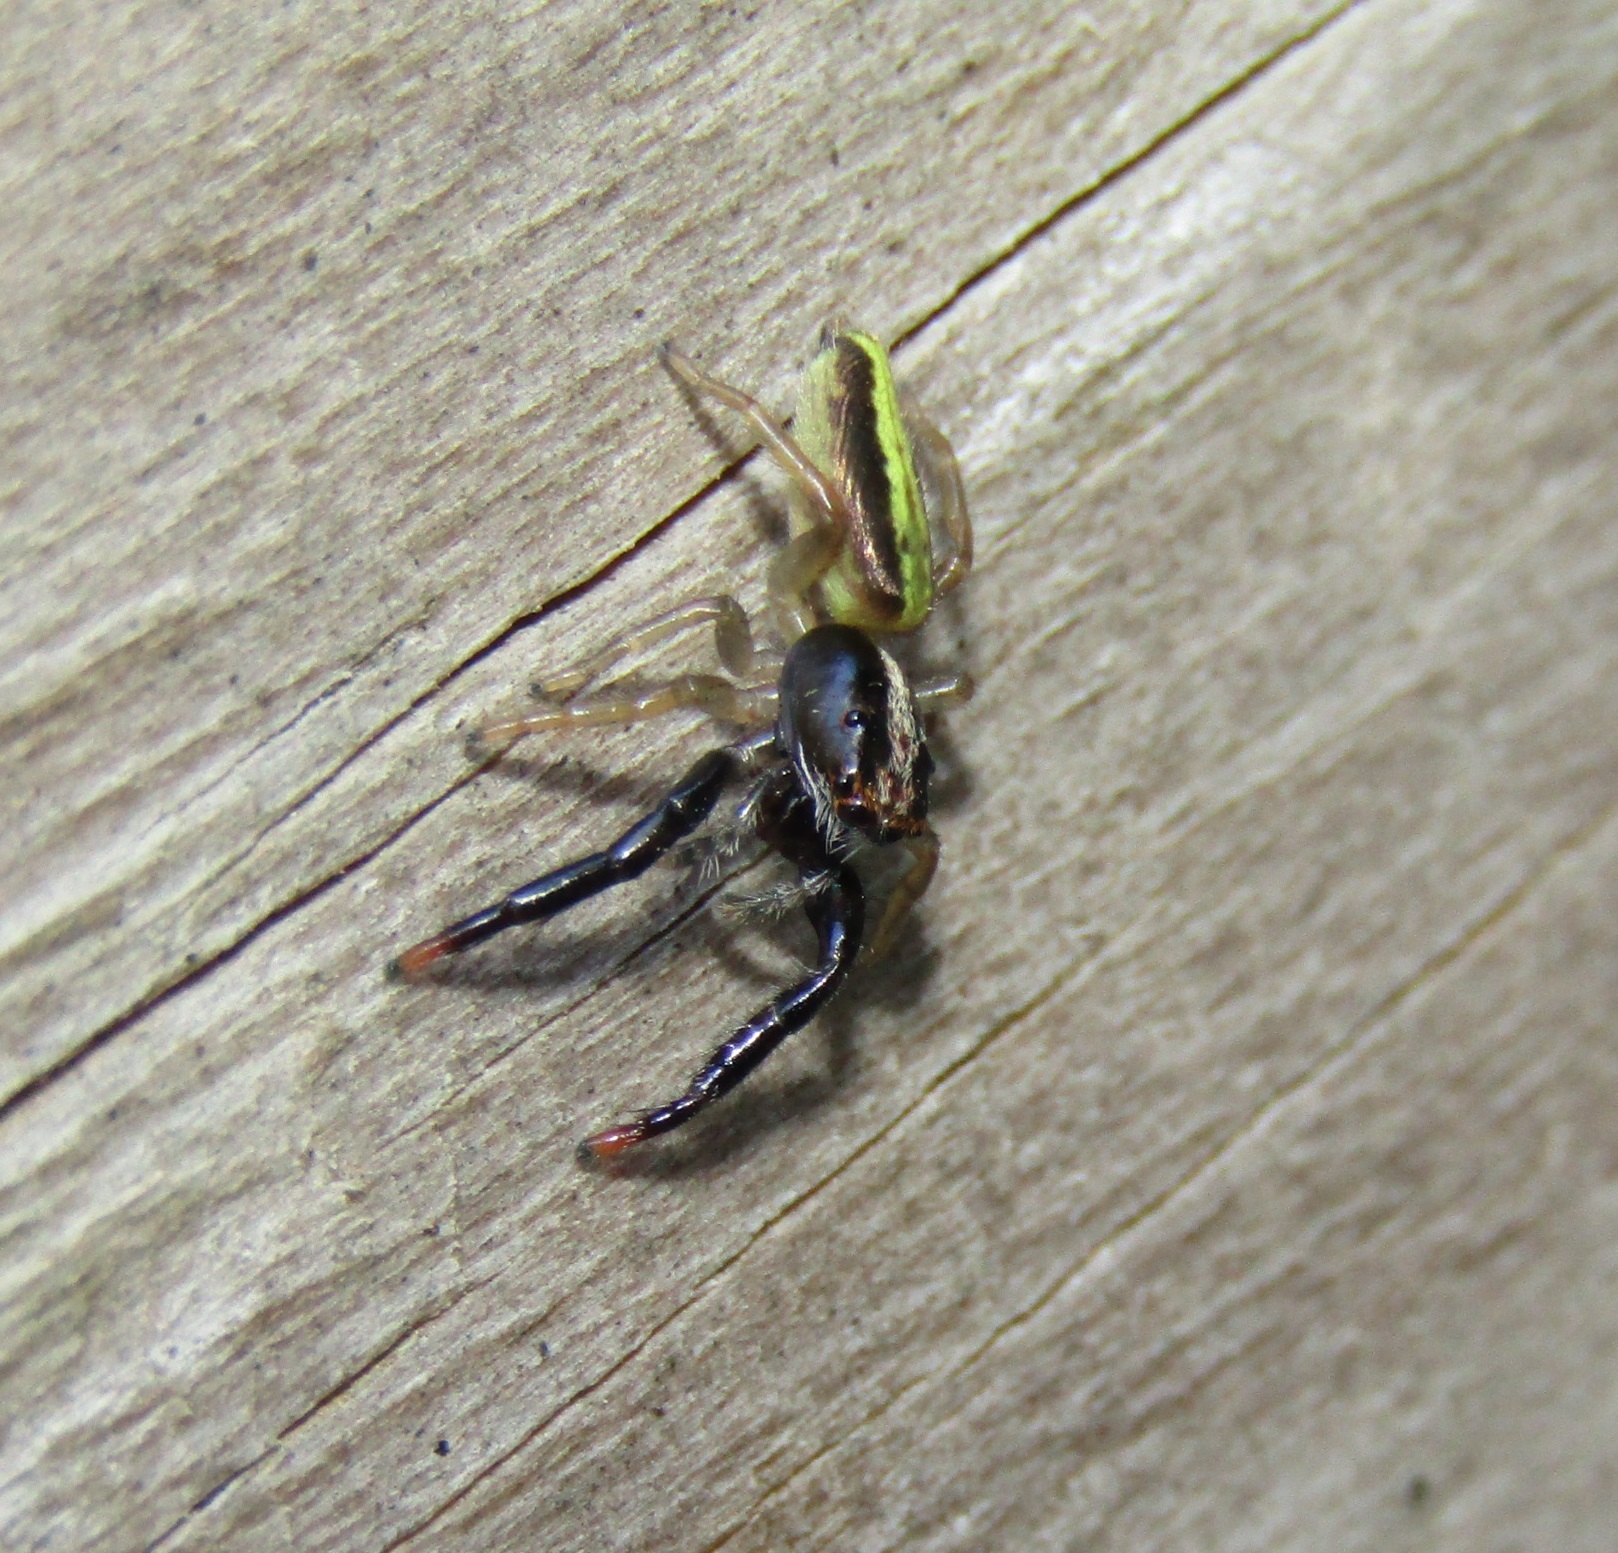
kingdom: Animalia
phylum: Arthropoda
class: Arachnida
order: Araneae
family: Salticidae
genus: Trite
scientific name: Trite planiceps
